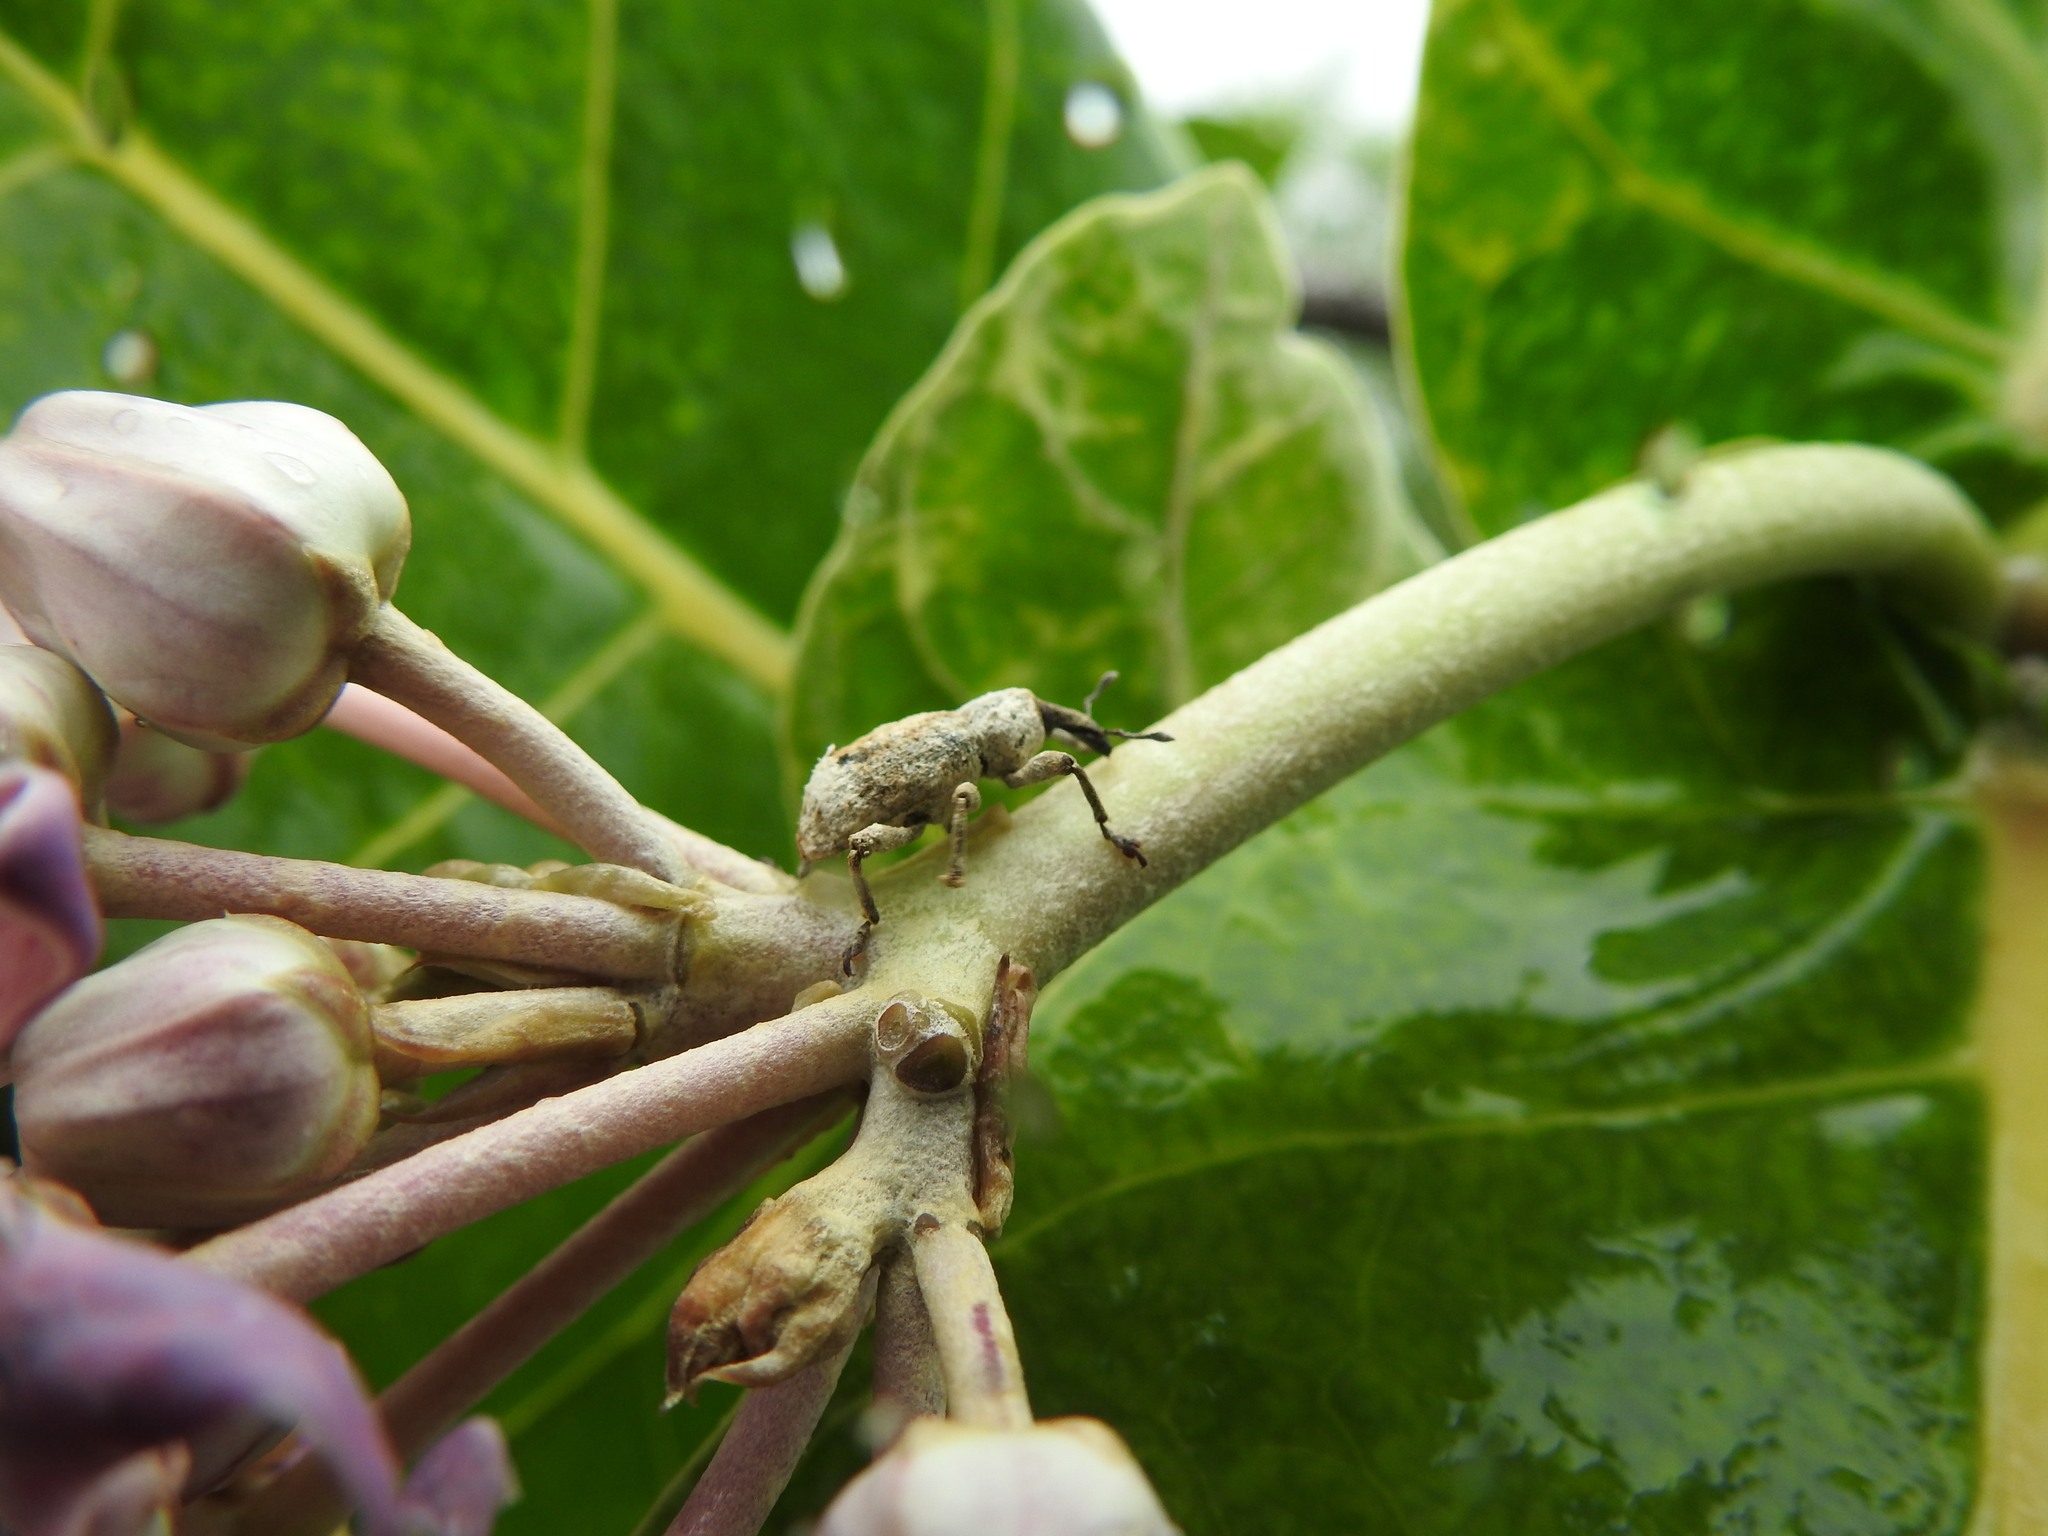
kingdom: Animalia
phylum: Arthropoda
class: Insecta
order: Coleoptera
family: Curculionidae
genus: Paramecops
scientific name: Paramecops farinosa
